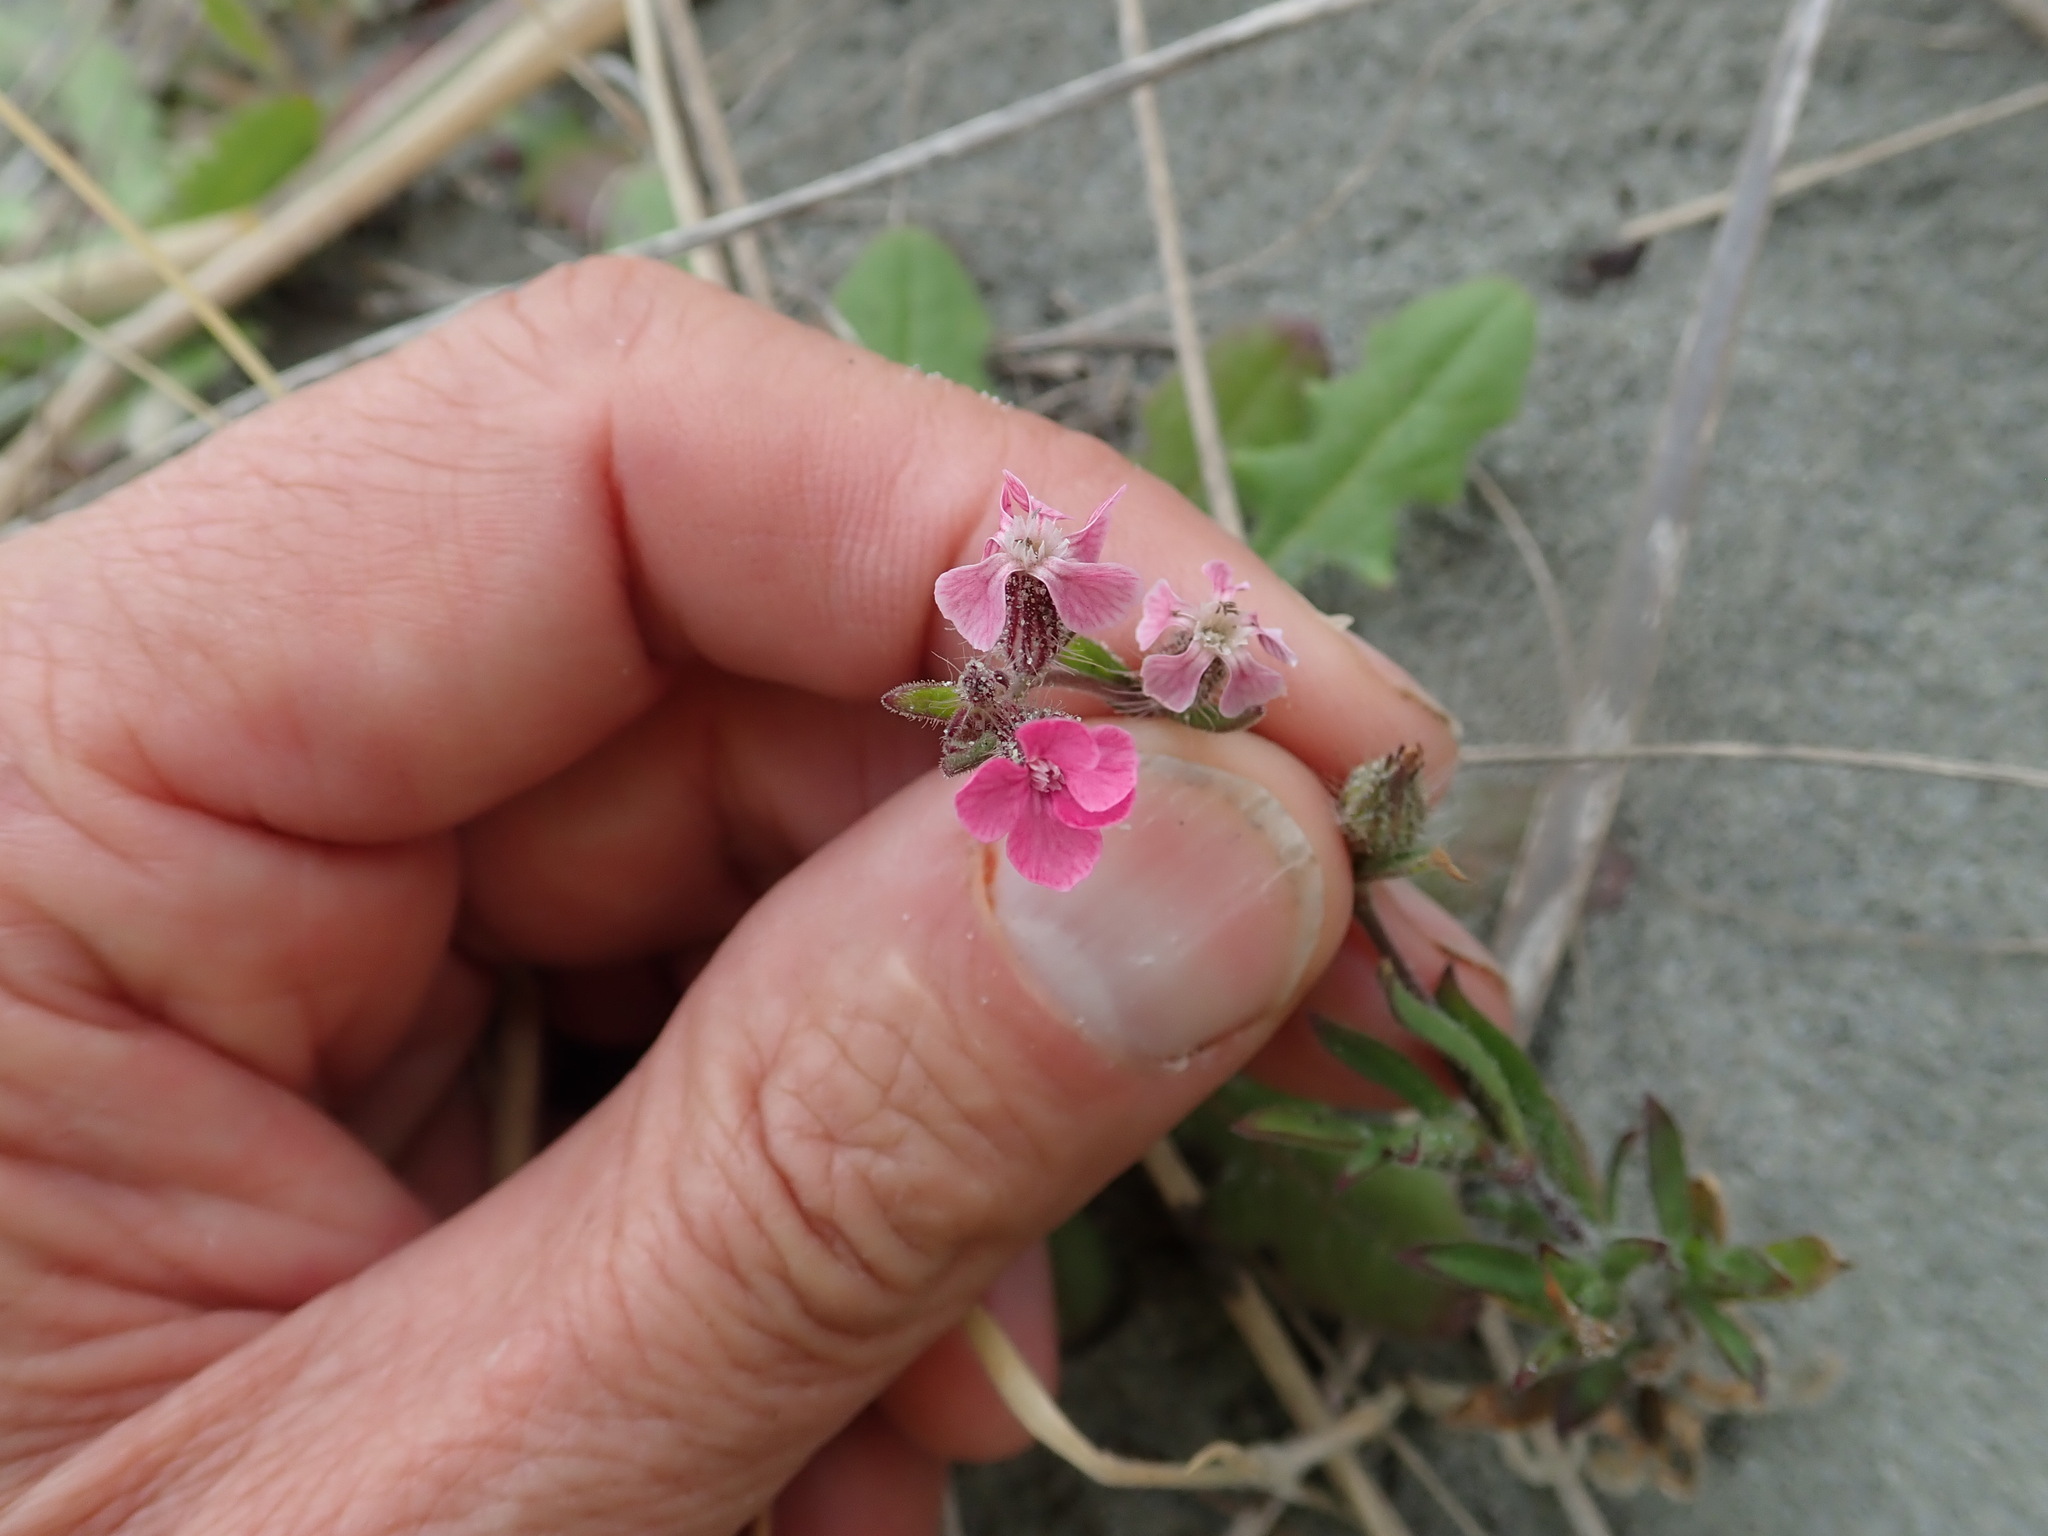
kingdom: Plantae
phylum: Tracheophyta
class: Magnoliopsida
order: Caryophyllales
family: Caryophyllaceae
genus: Silene
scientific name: Silene gallica
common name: Small-flowered catchfly
